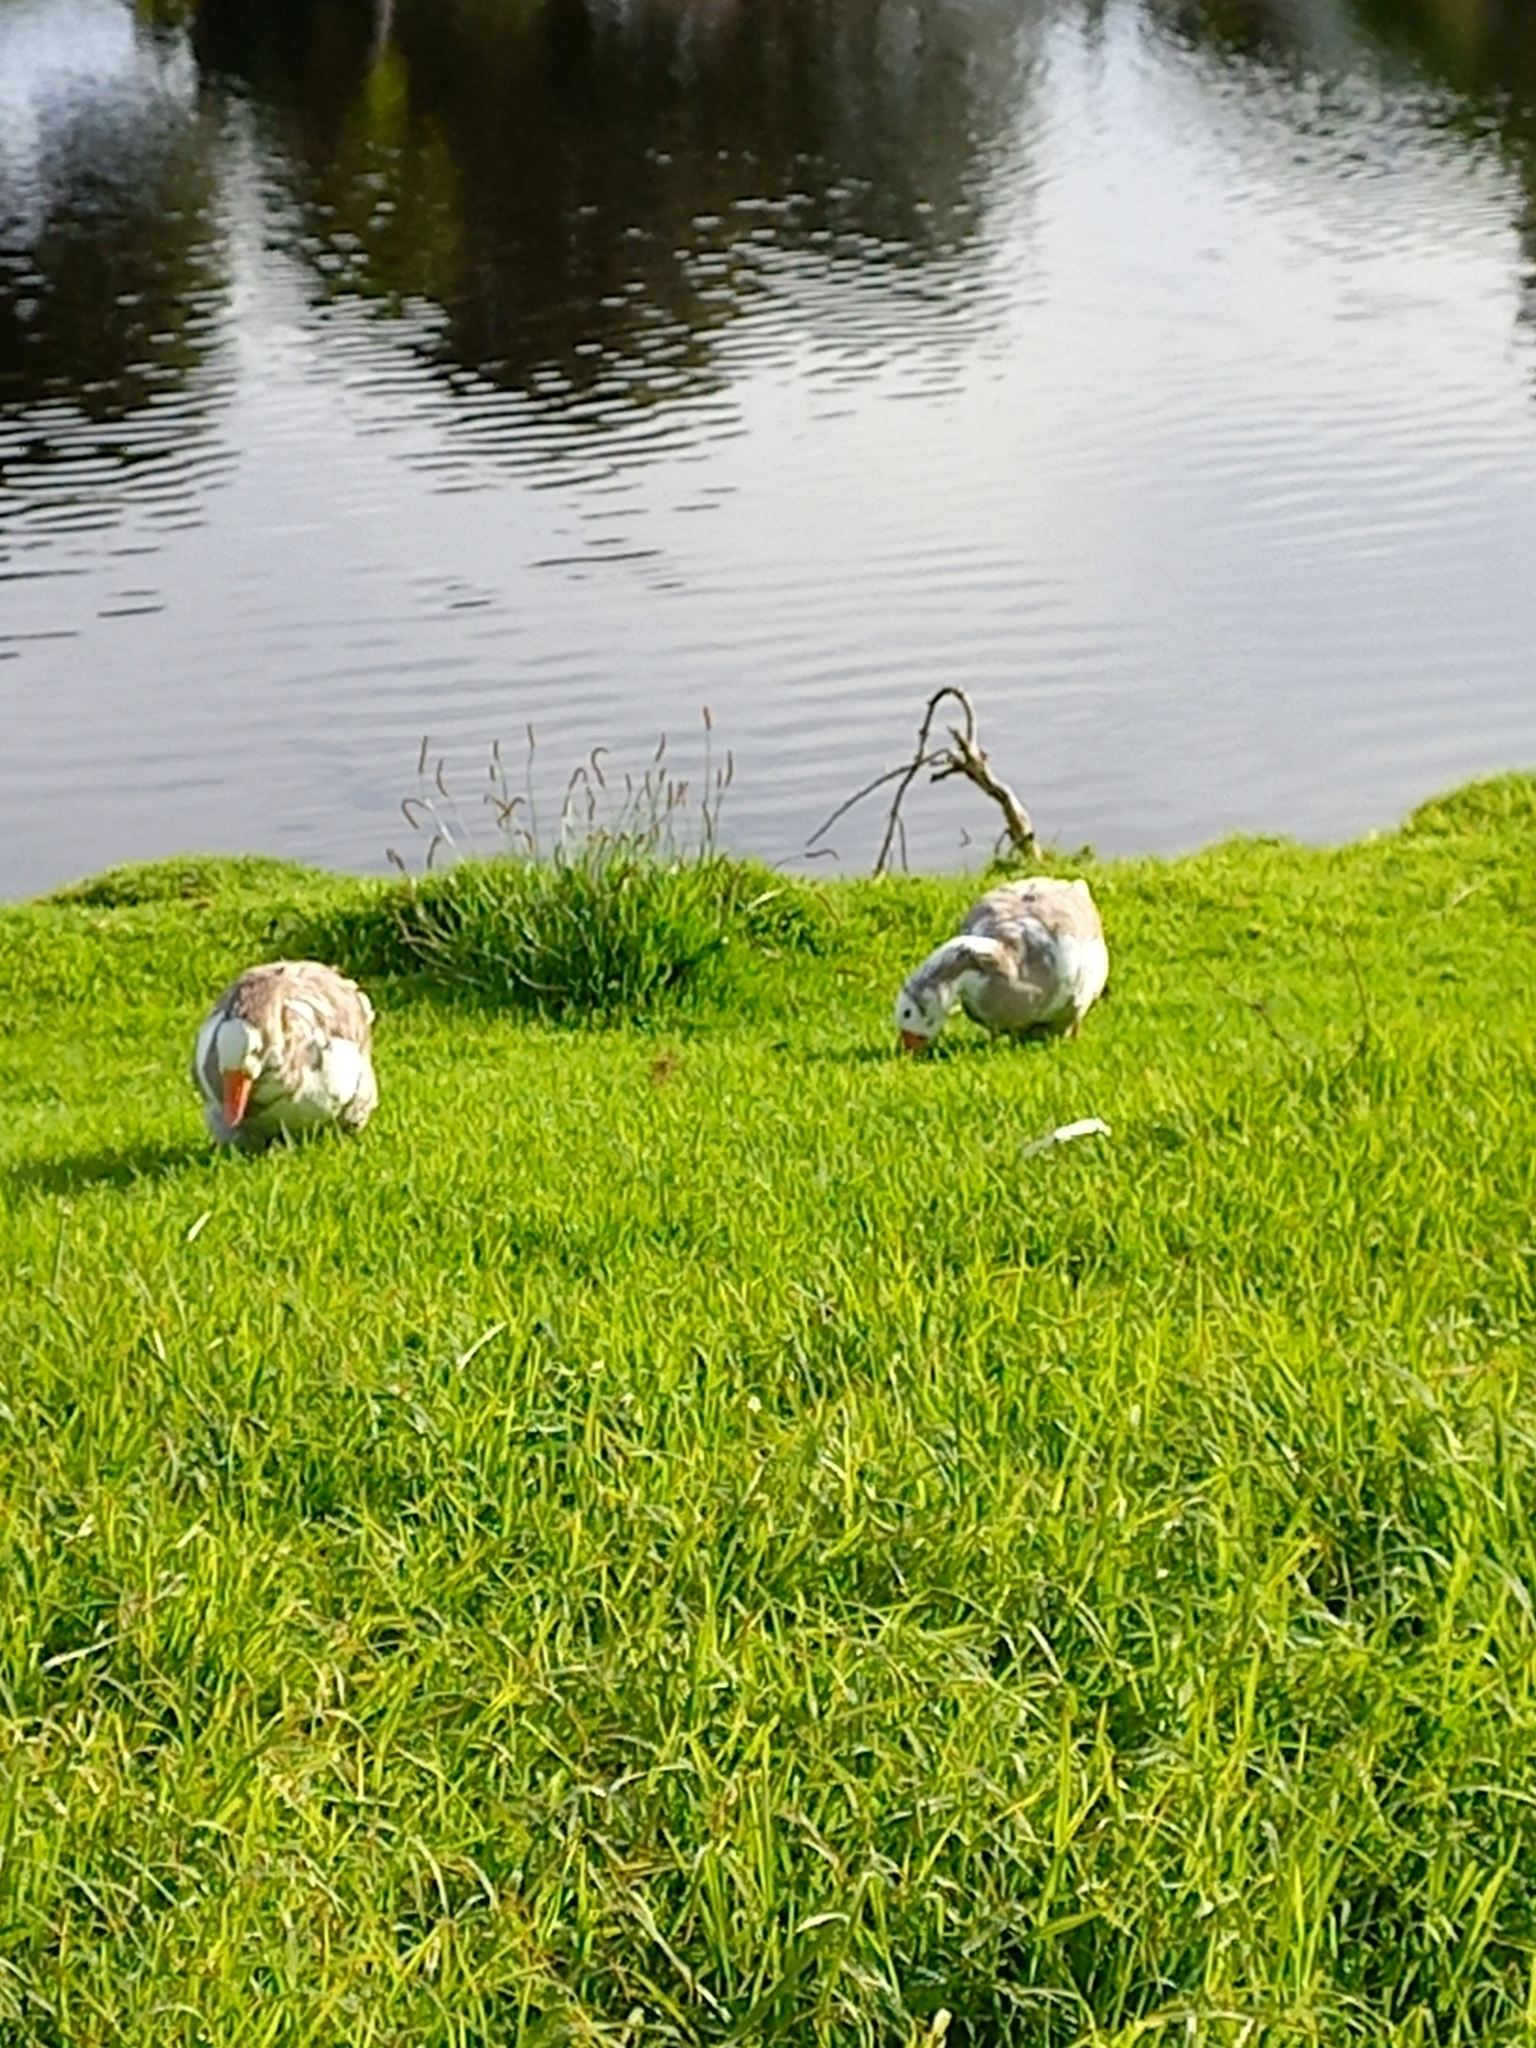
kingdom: Animalia
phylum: Chordata
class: Aves
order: Anseriformes
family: Anatidae
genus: Anser
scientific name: Anser anser
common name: Greylag goose
